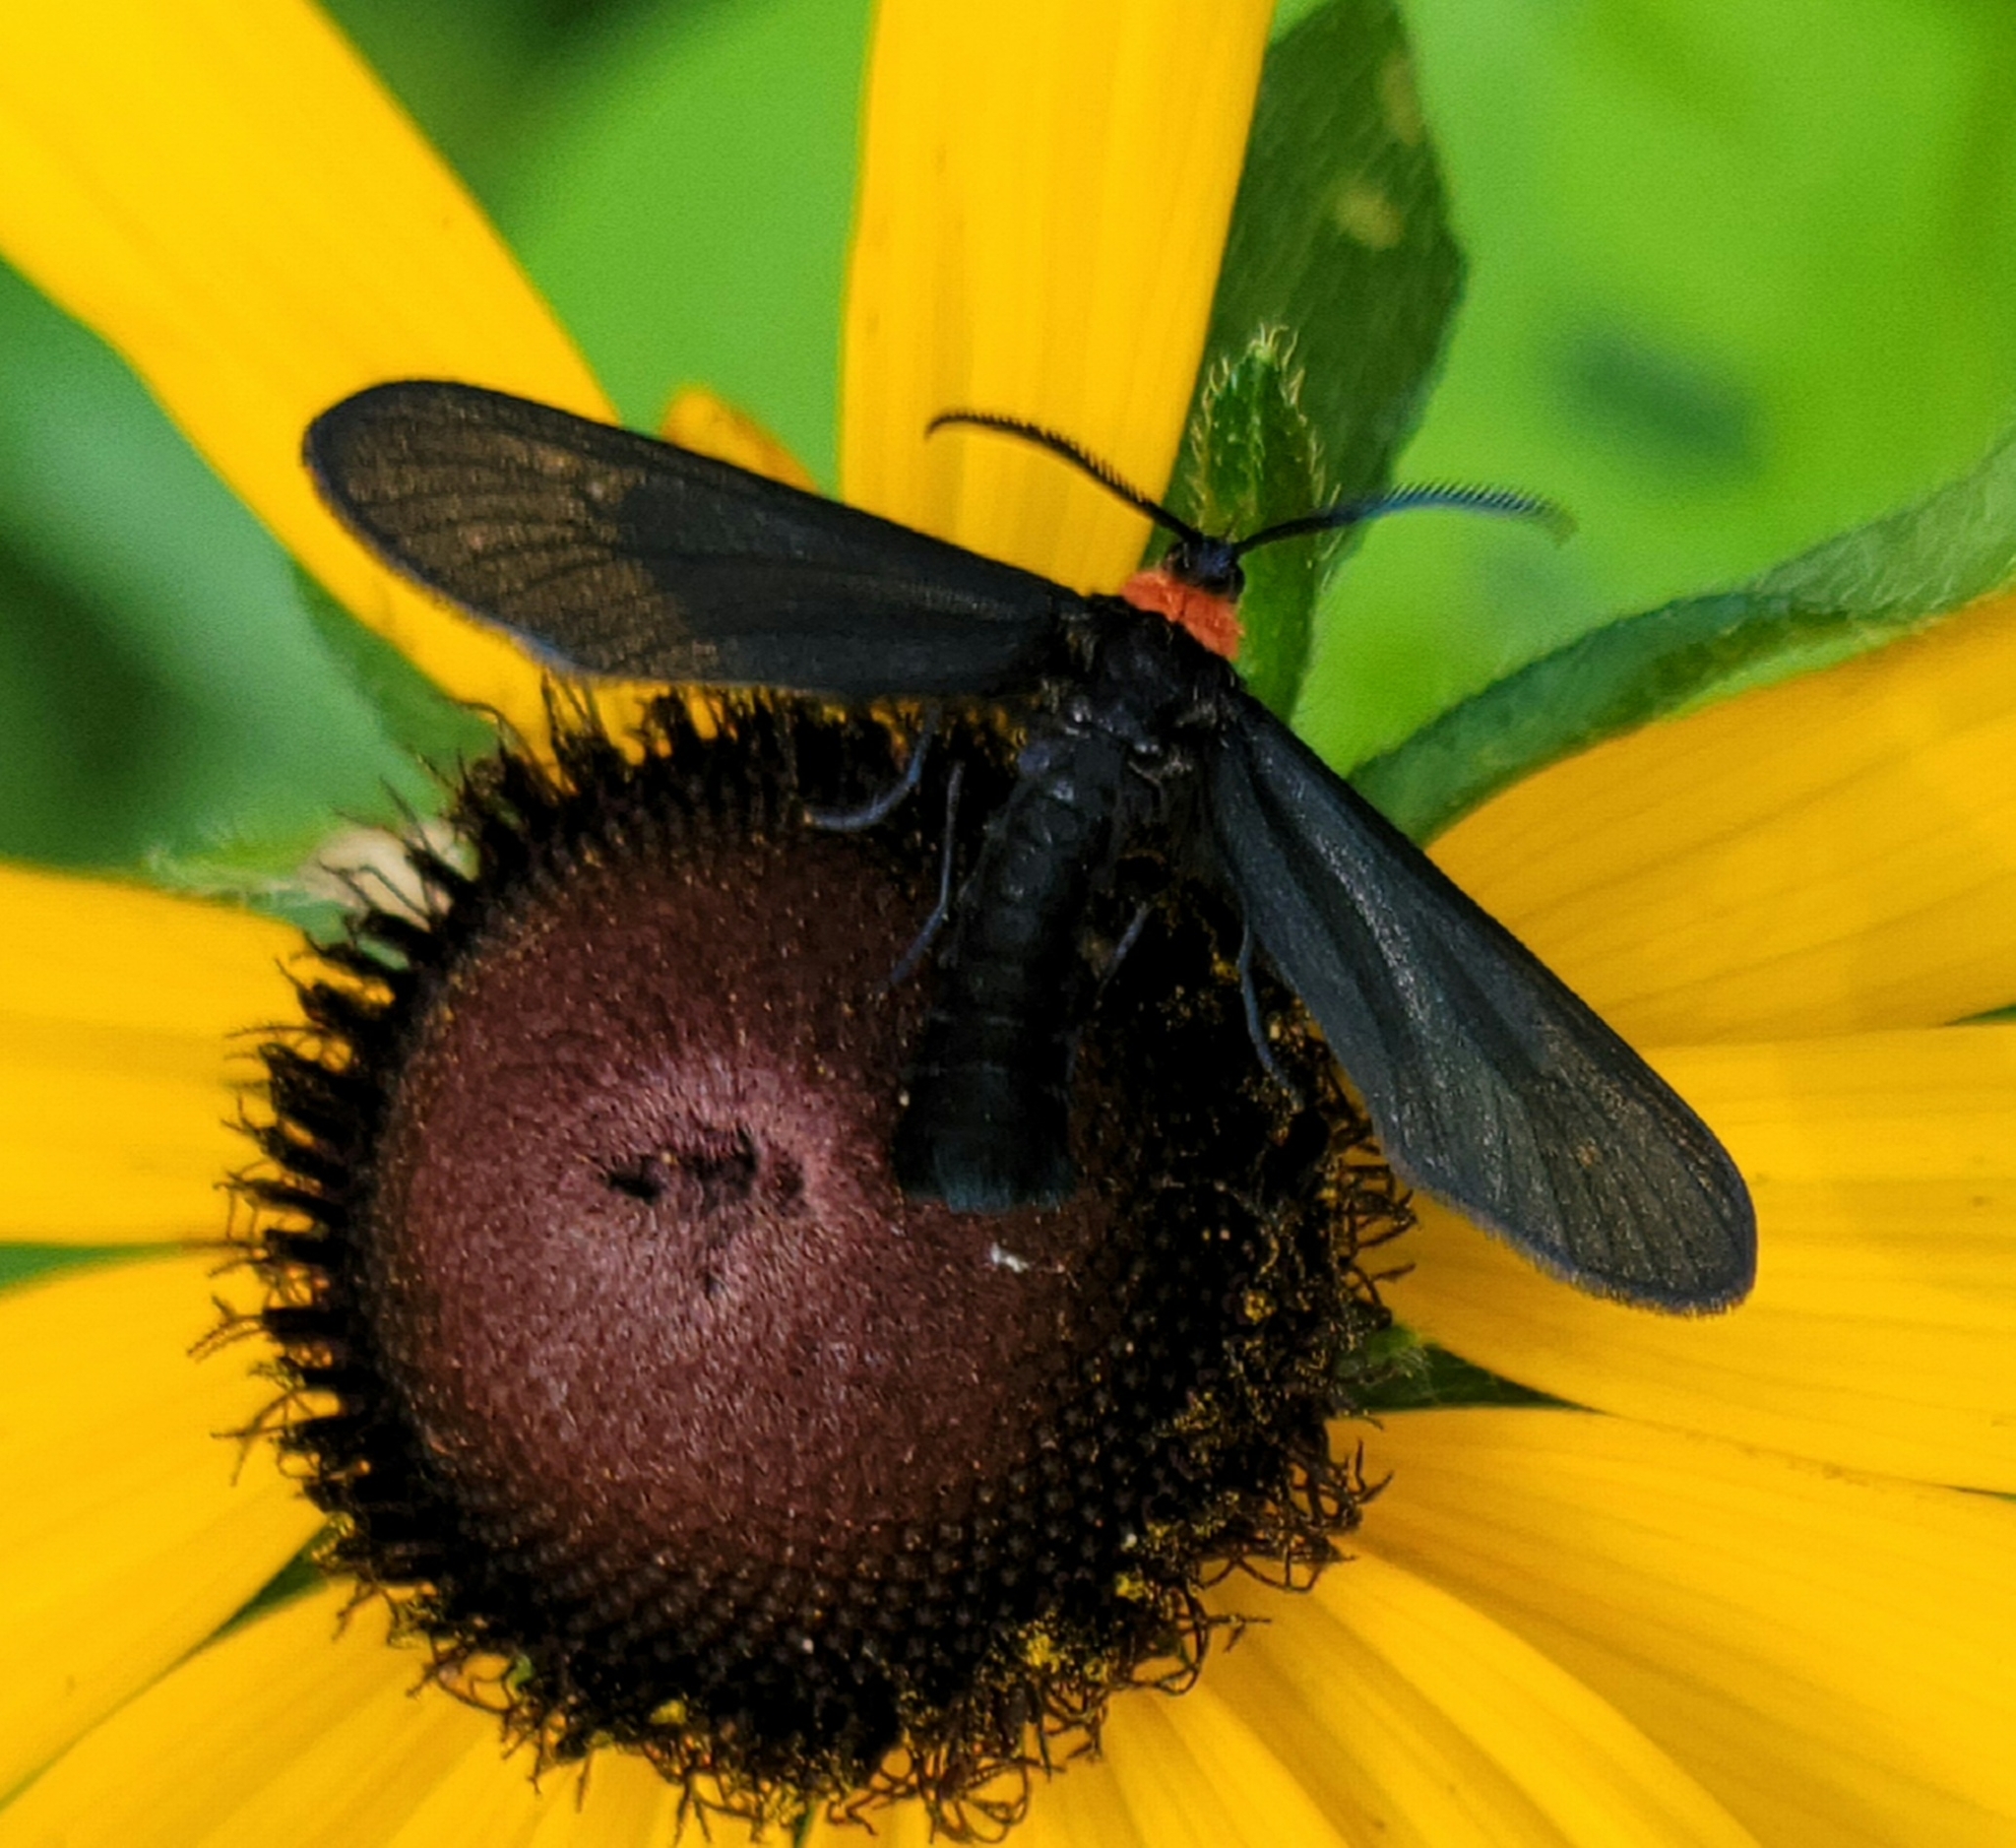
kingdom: Animalia
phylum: Arthropoda
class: Insecta
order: Lepidoptera
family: Zygaenidae
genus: Harrisina
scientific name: Harrisina americana
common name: Grapeleaf skeletonizer moth
